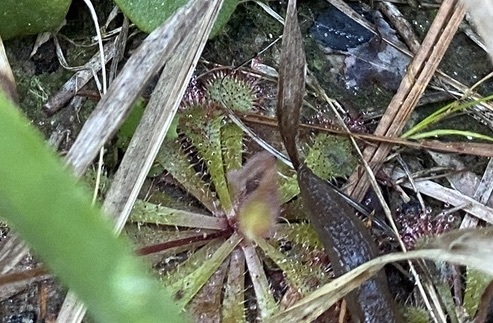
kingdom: Plantae
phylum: Tracheophyta
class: Magnoliopsida
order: Caryophyllales
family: Droseraceae
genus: Drosera
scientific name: Drosera brevifolia
